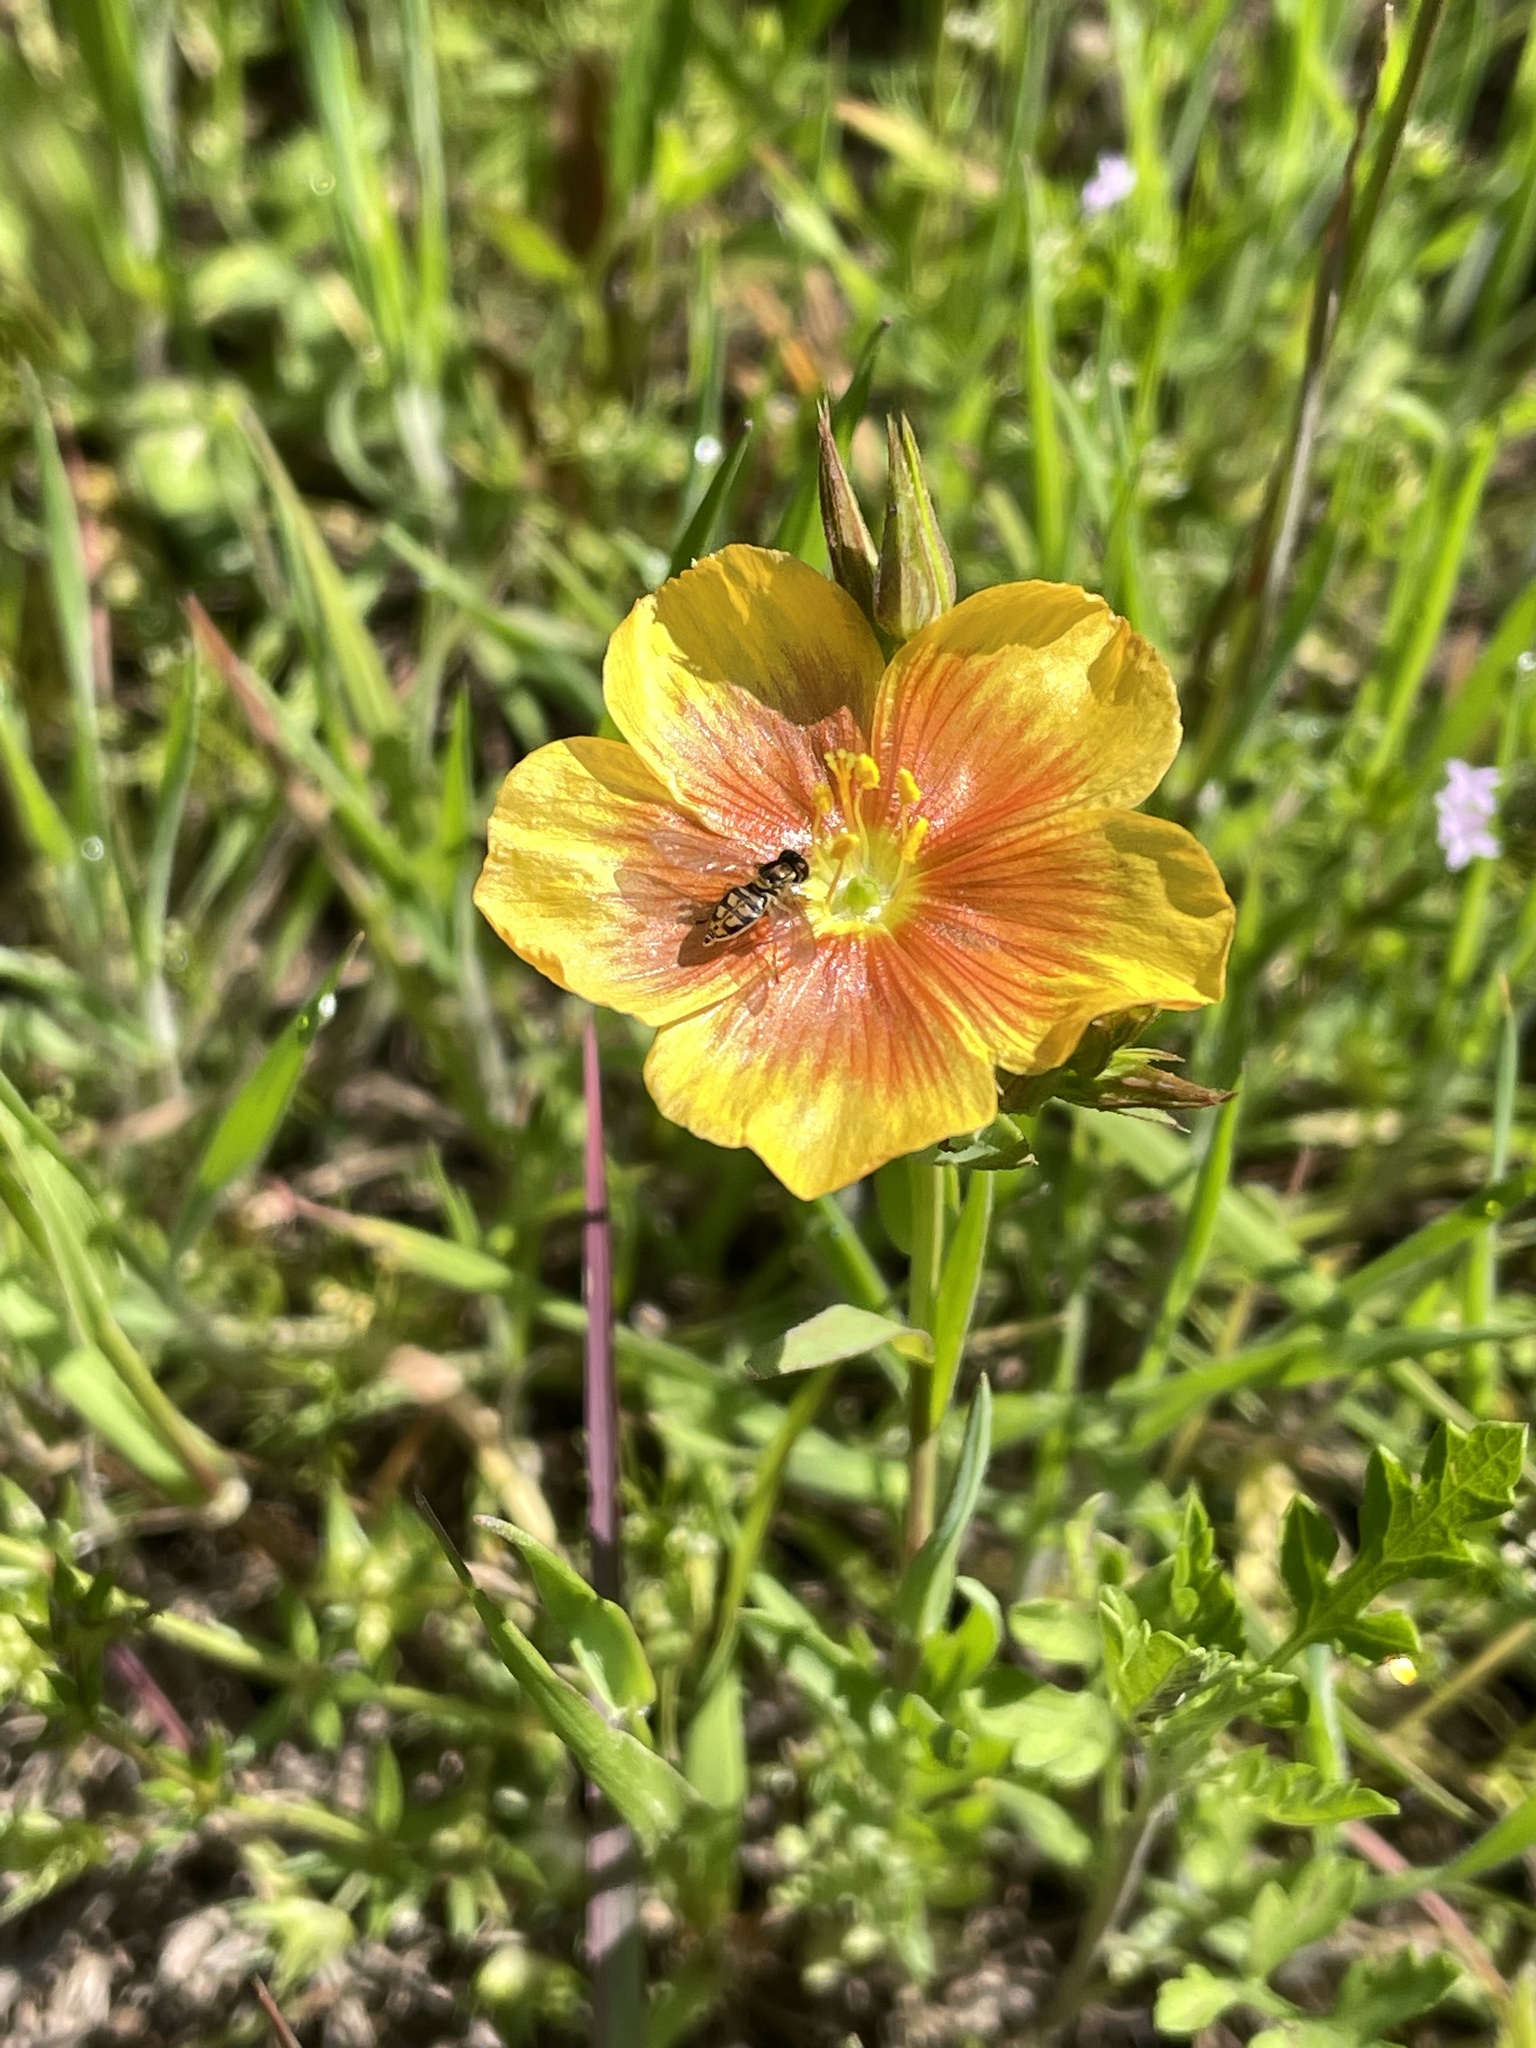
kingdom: Animalia
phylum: Arthropoda
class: Insecta
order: Diptera
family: Syrphidae
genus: Toxomerus
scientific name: Toxomerus marginatus
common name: Syrphid fly
